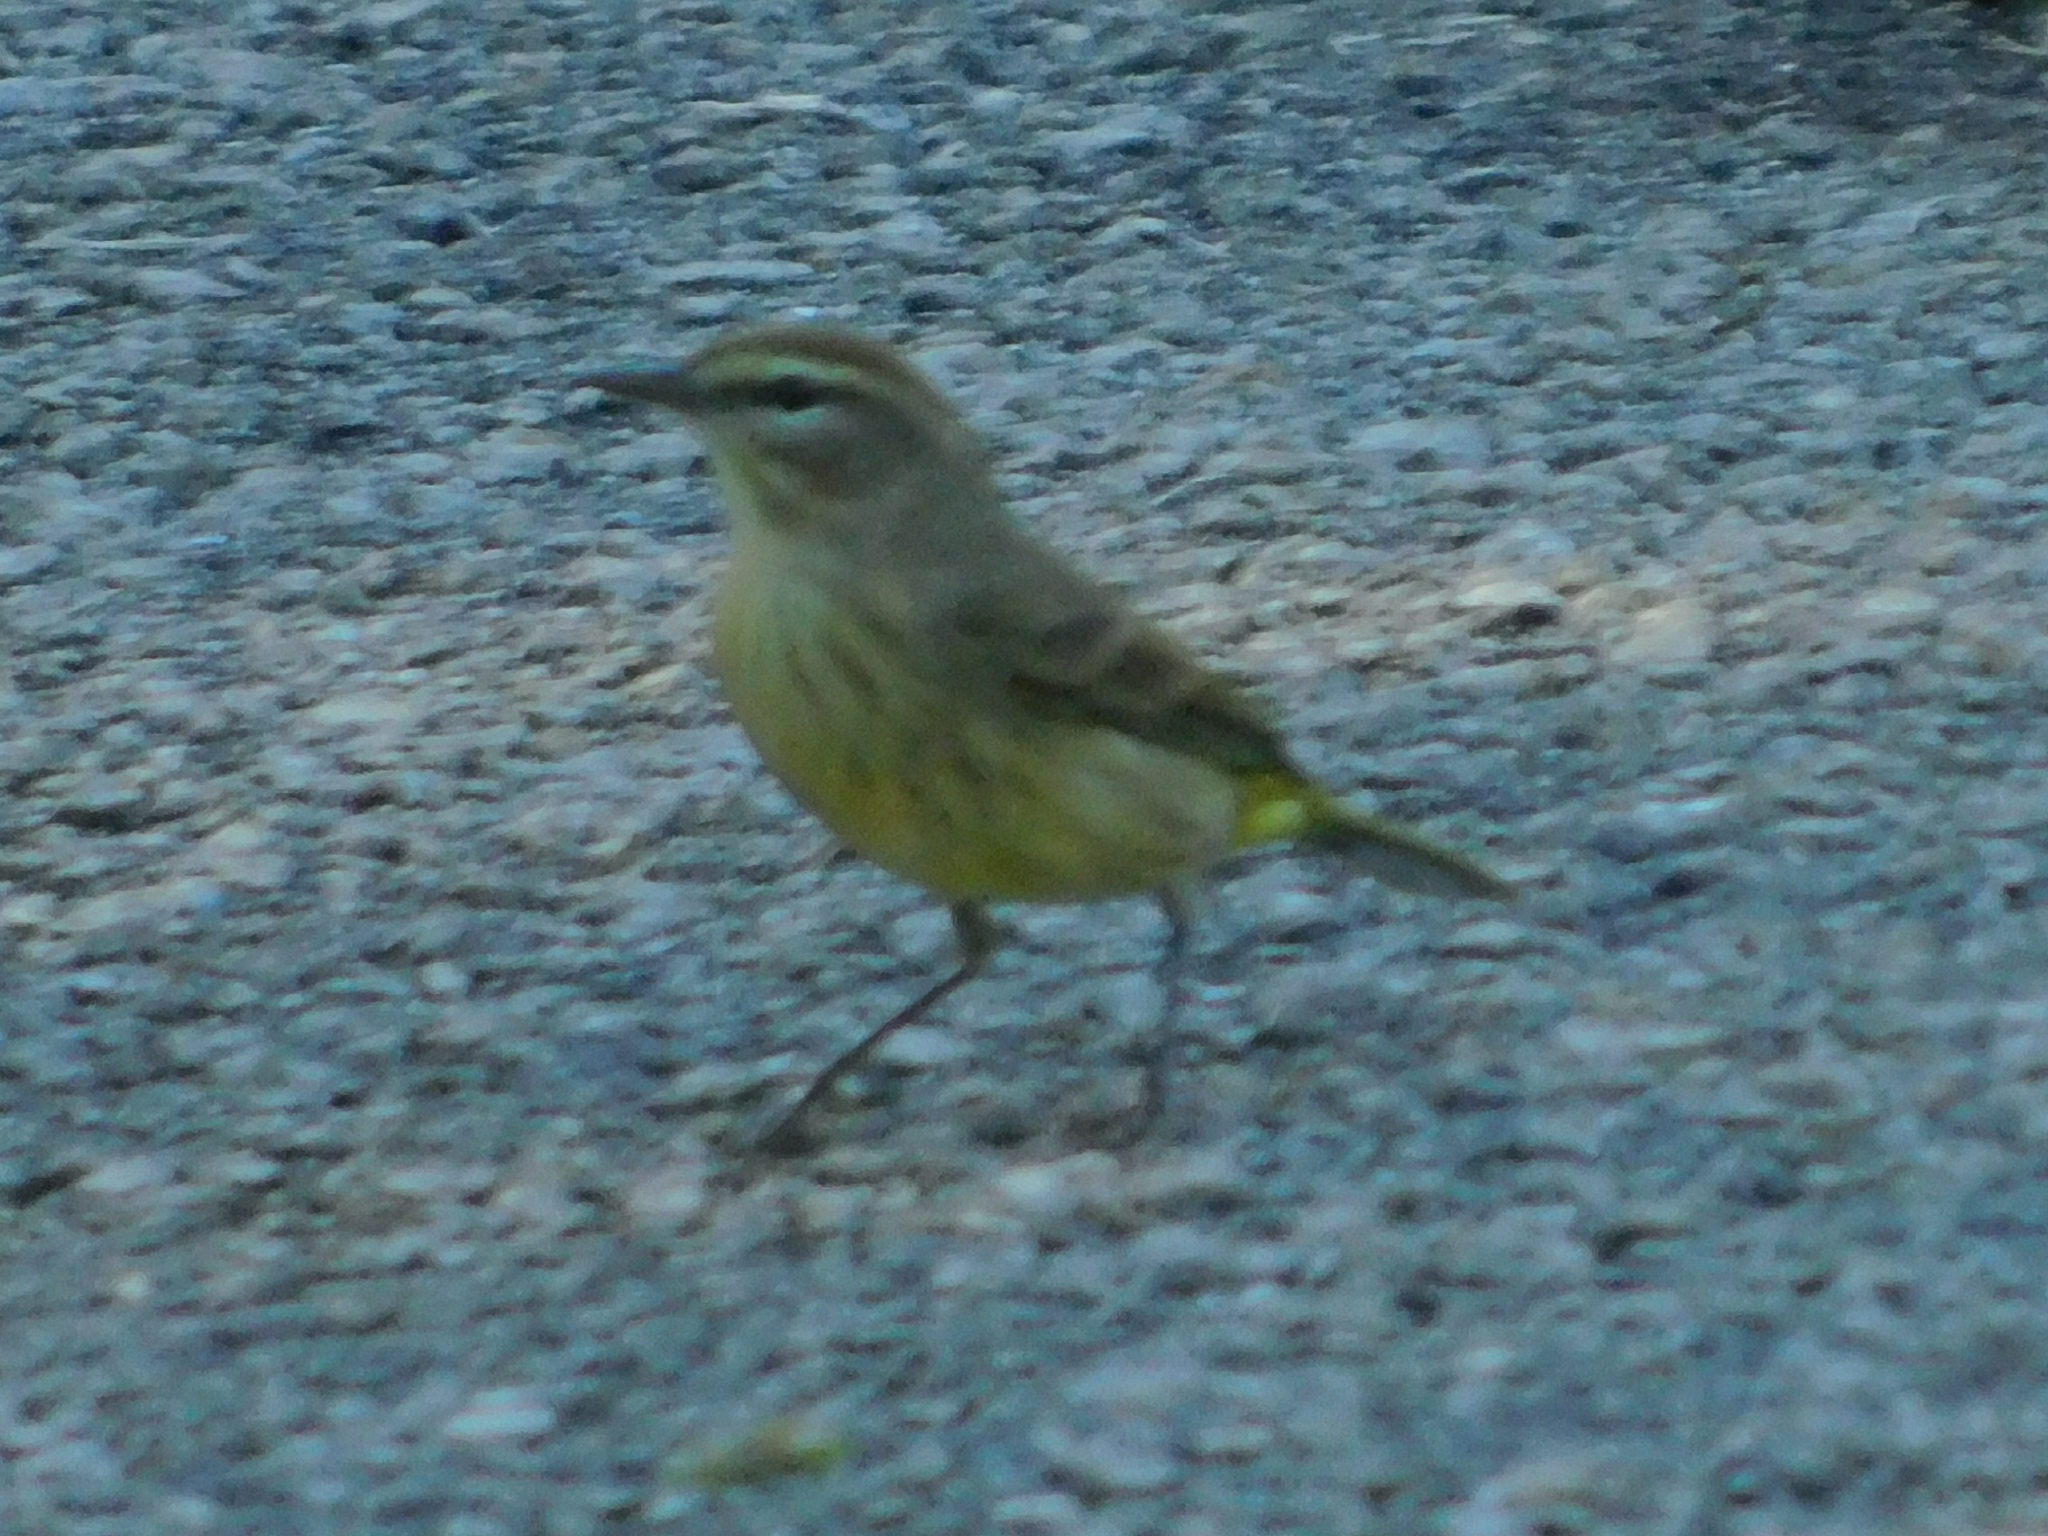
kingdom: Animalia
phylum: Chordata
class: Aves
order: Passeriformes
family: Parulidae
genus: Setophaga
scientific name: Setophaga palmarum
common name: Palm warbler
